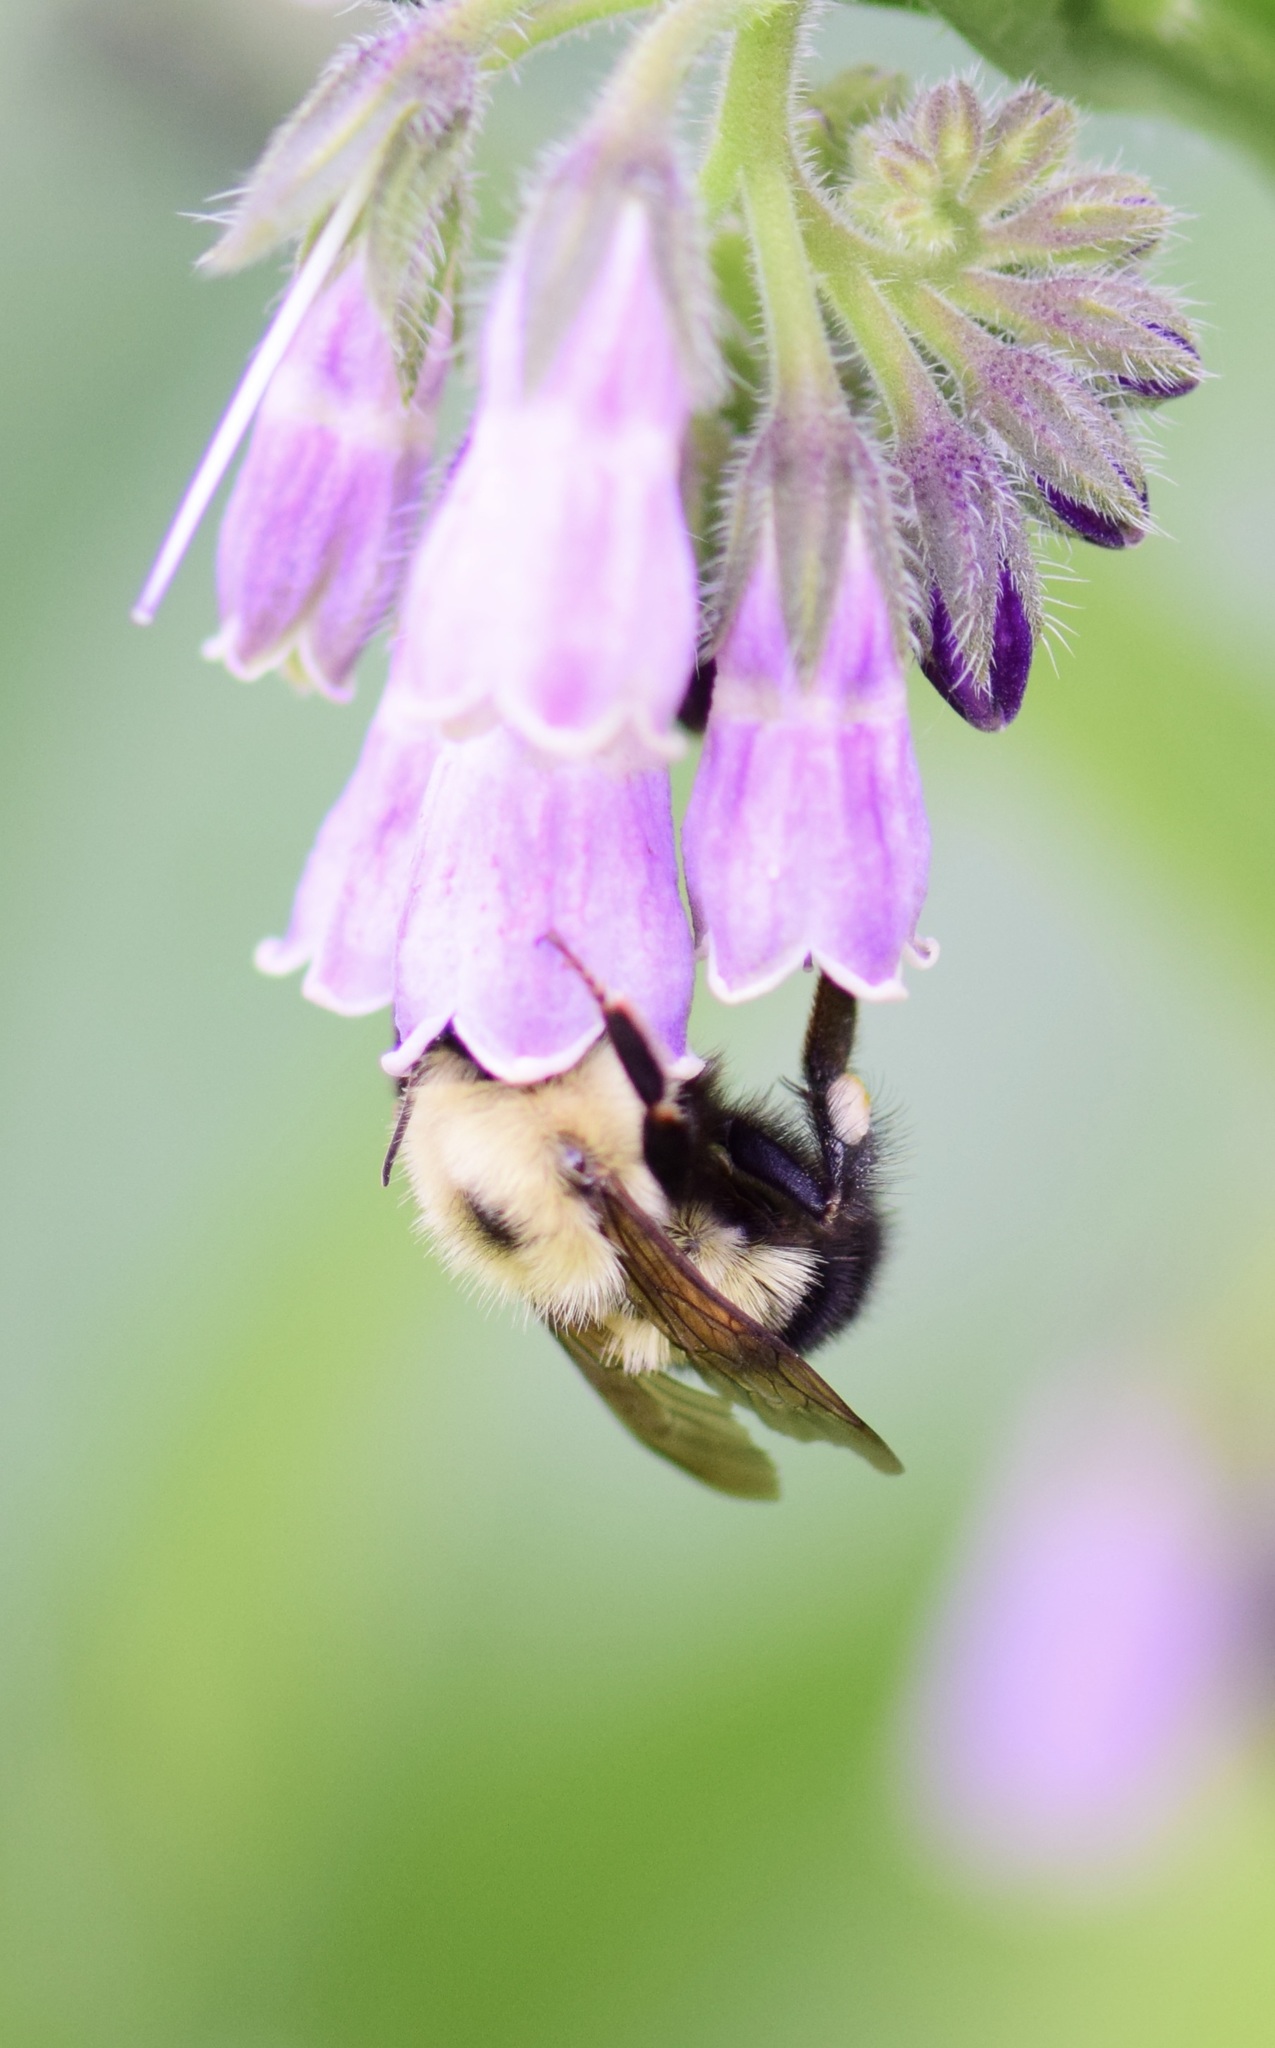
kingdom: Animalia
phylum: Arthropoda
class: Insecta
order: Hymenoptera
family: Apidae
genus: Bombus
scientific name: Bombus vagans
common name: Half-black bumble bee
